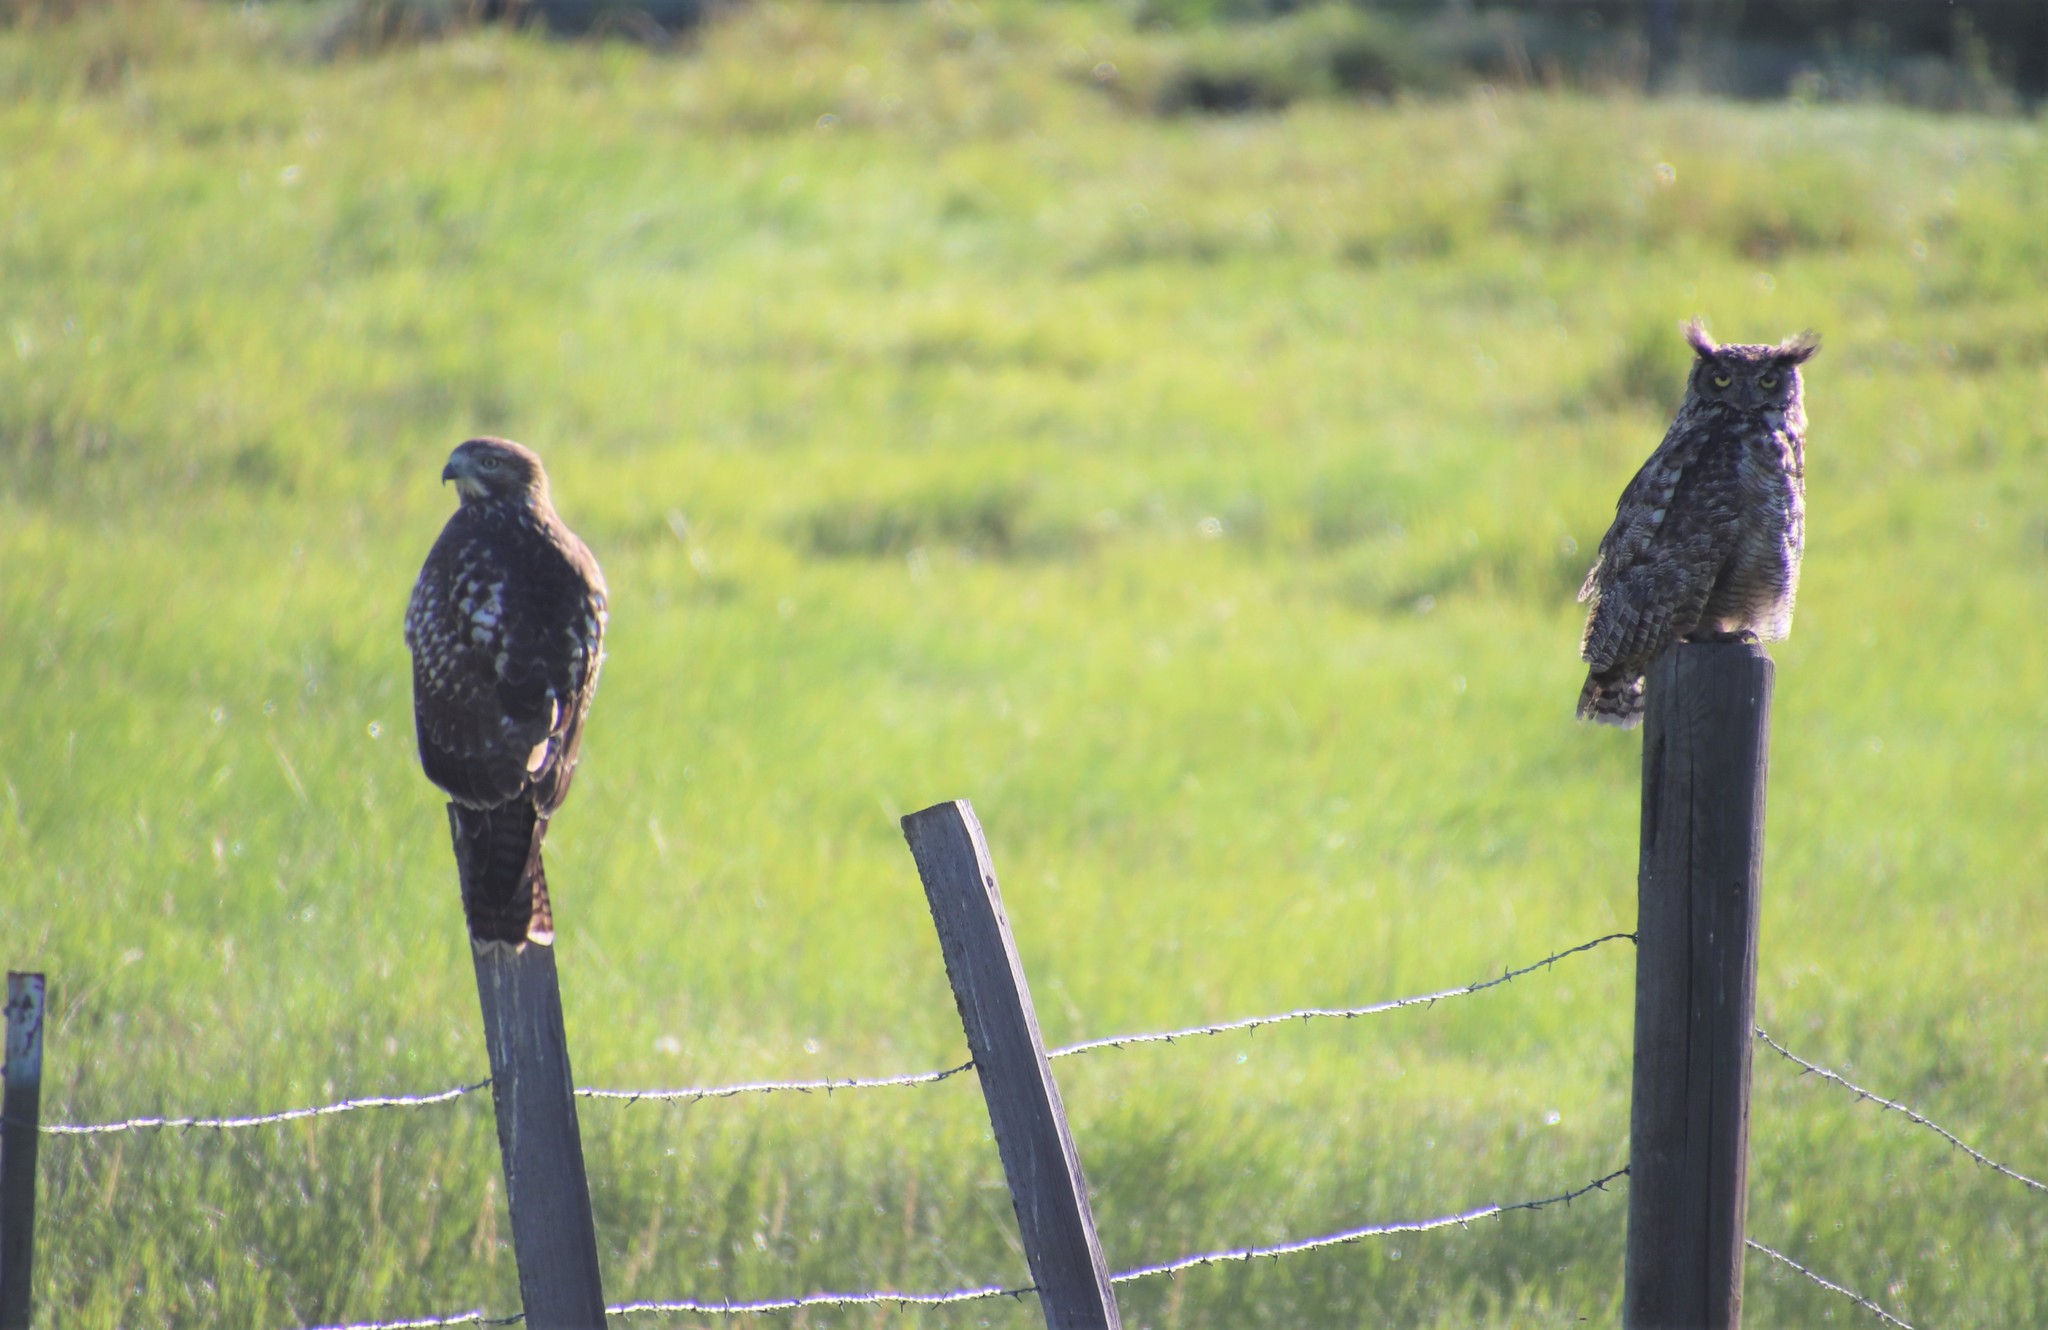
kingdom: Animalia
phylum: Chordata
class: Aves
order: Accipitriformes
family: Accipitridae
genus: Buteo
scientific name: Buteo jamaicensis
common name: Red-tailed hawk
